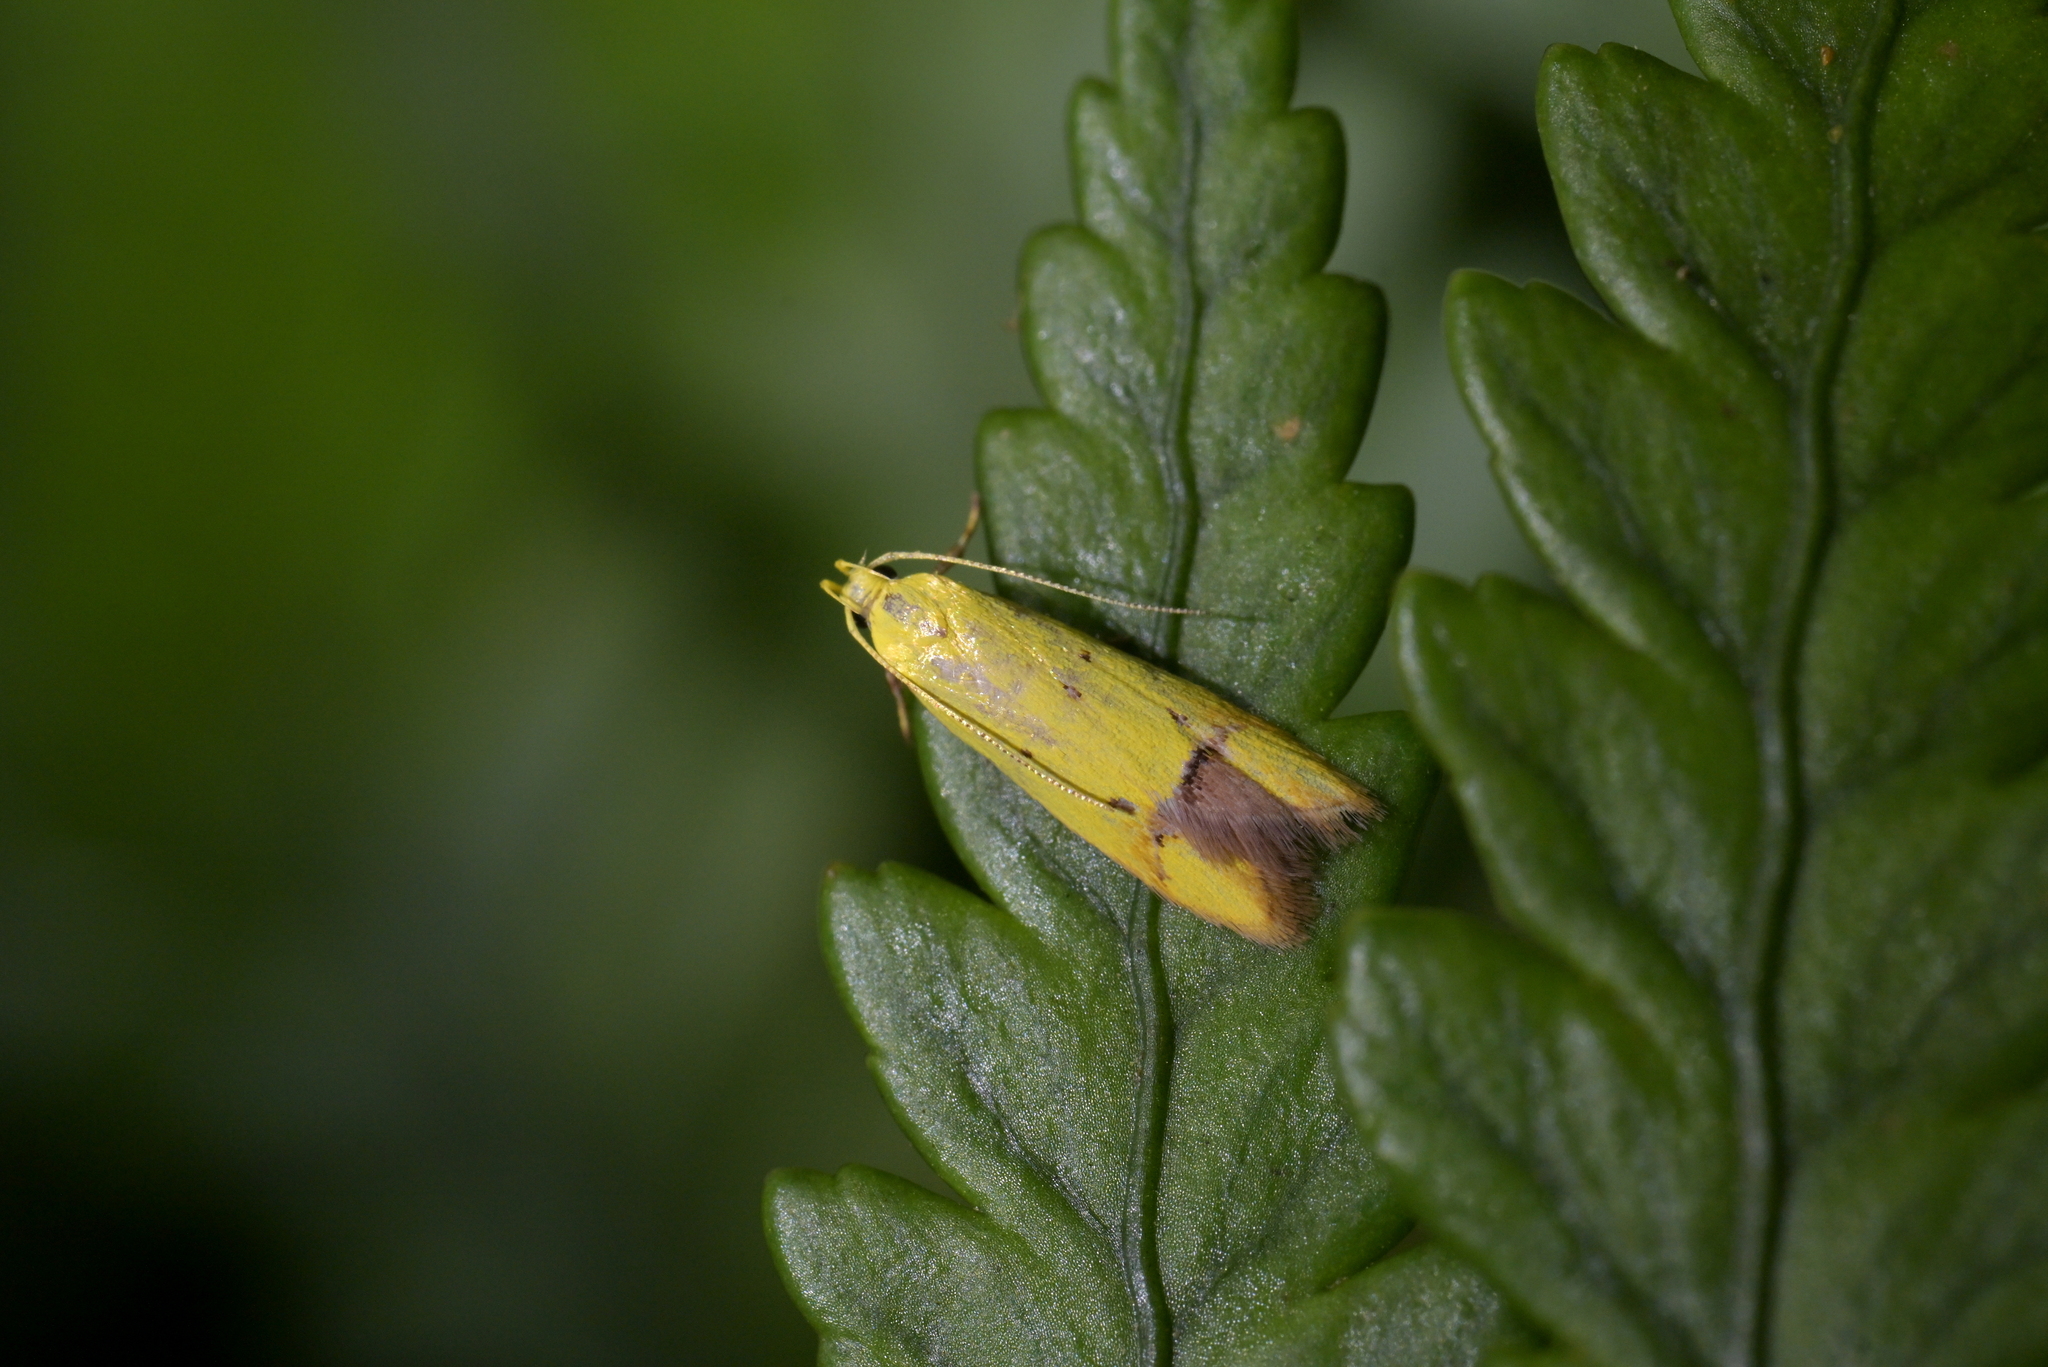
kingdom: Animalia
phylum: Arthropoda
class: Insecta
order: Lepidoptera
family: Oecophoridae
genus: Gymnobathra
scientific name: Gymnobathra flavidella
